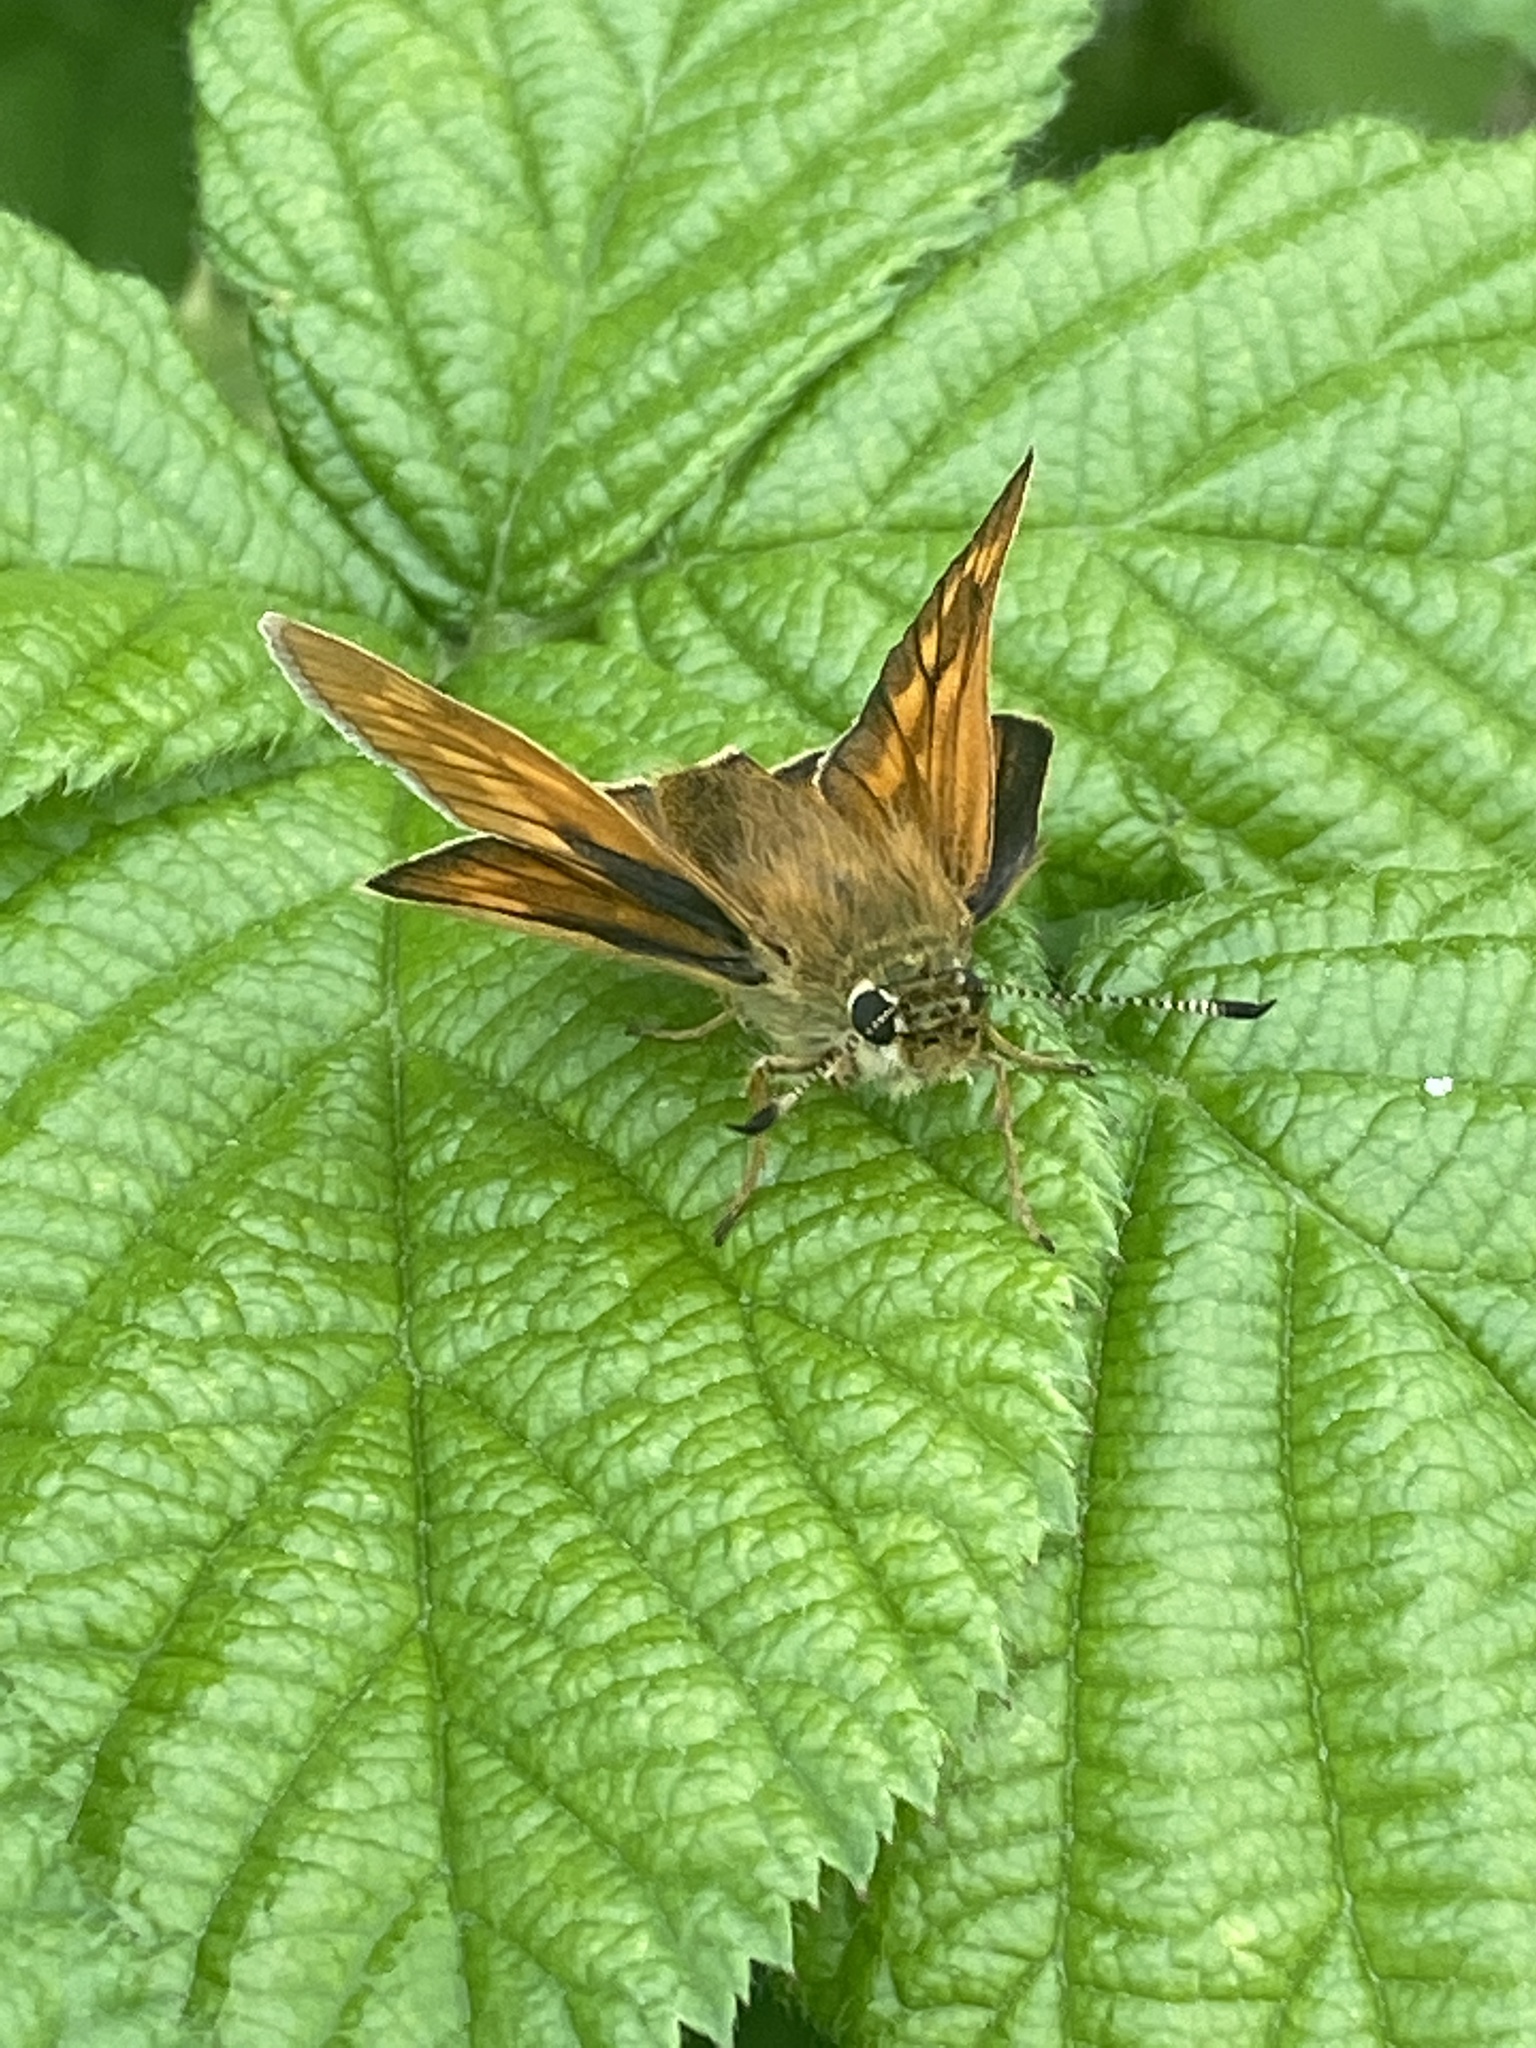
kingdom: Animalia
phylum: Arthropoda
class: Insecta
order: Lepidoptera
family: Hesperiidae
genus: Ochlodes
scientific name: Ochlodes venata
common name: Large skipper
